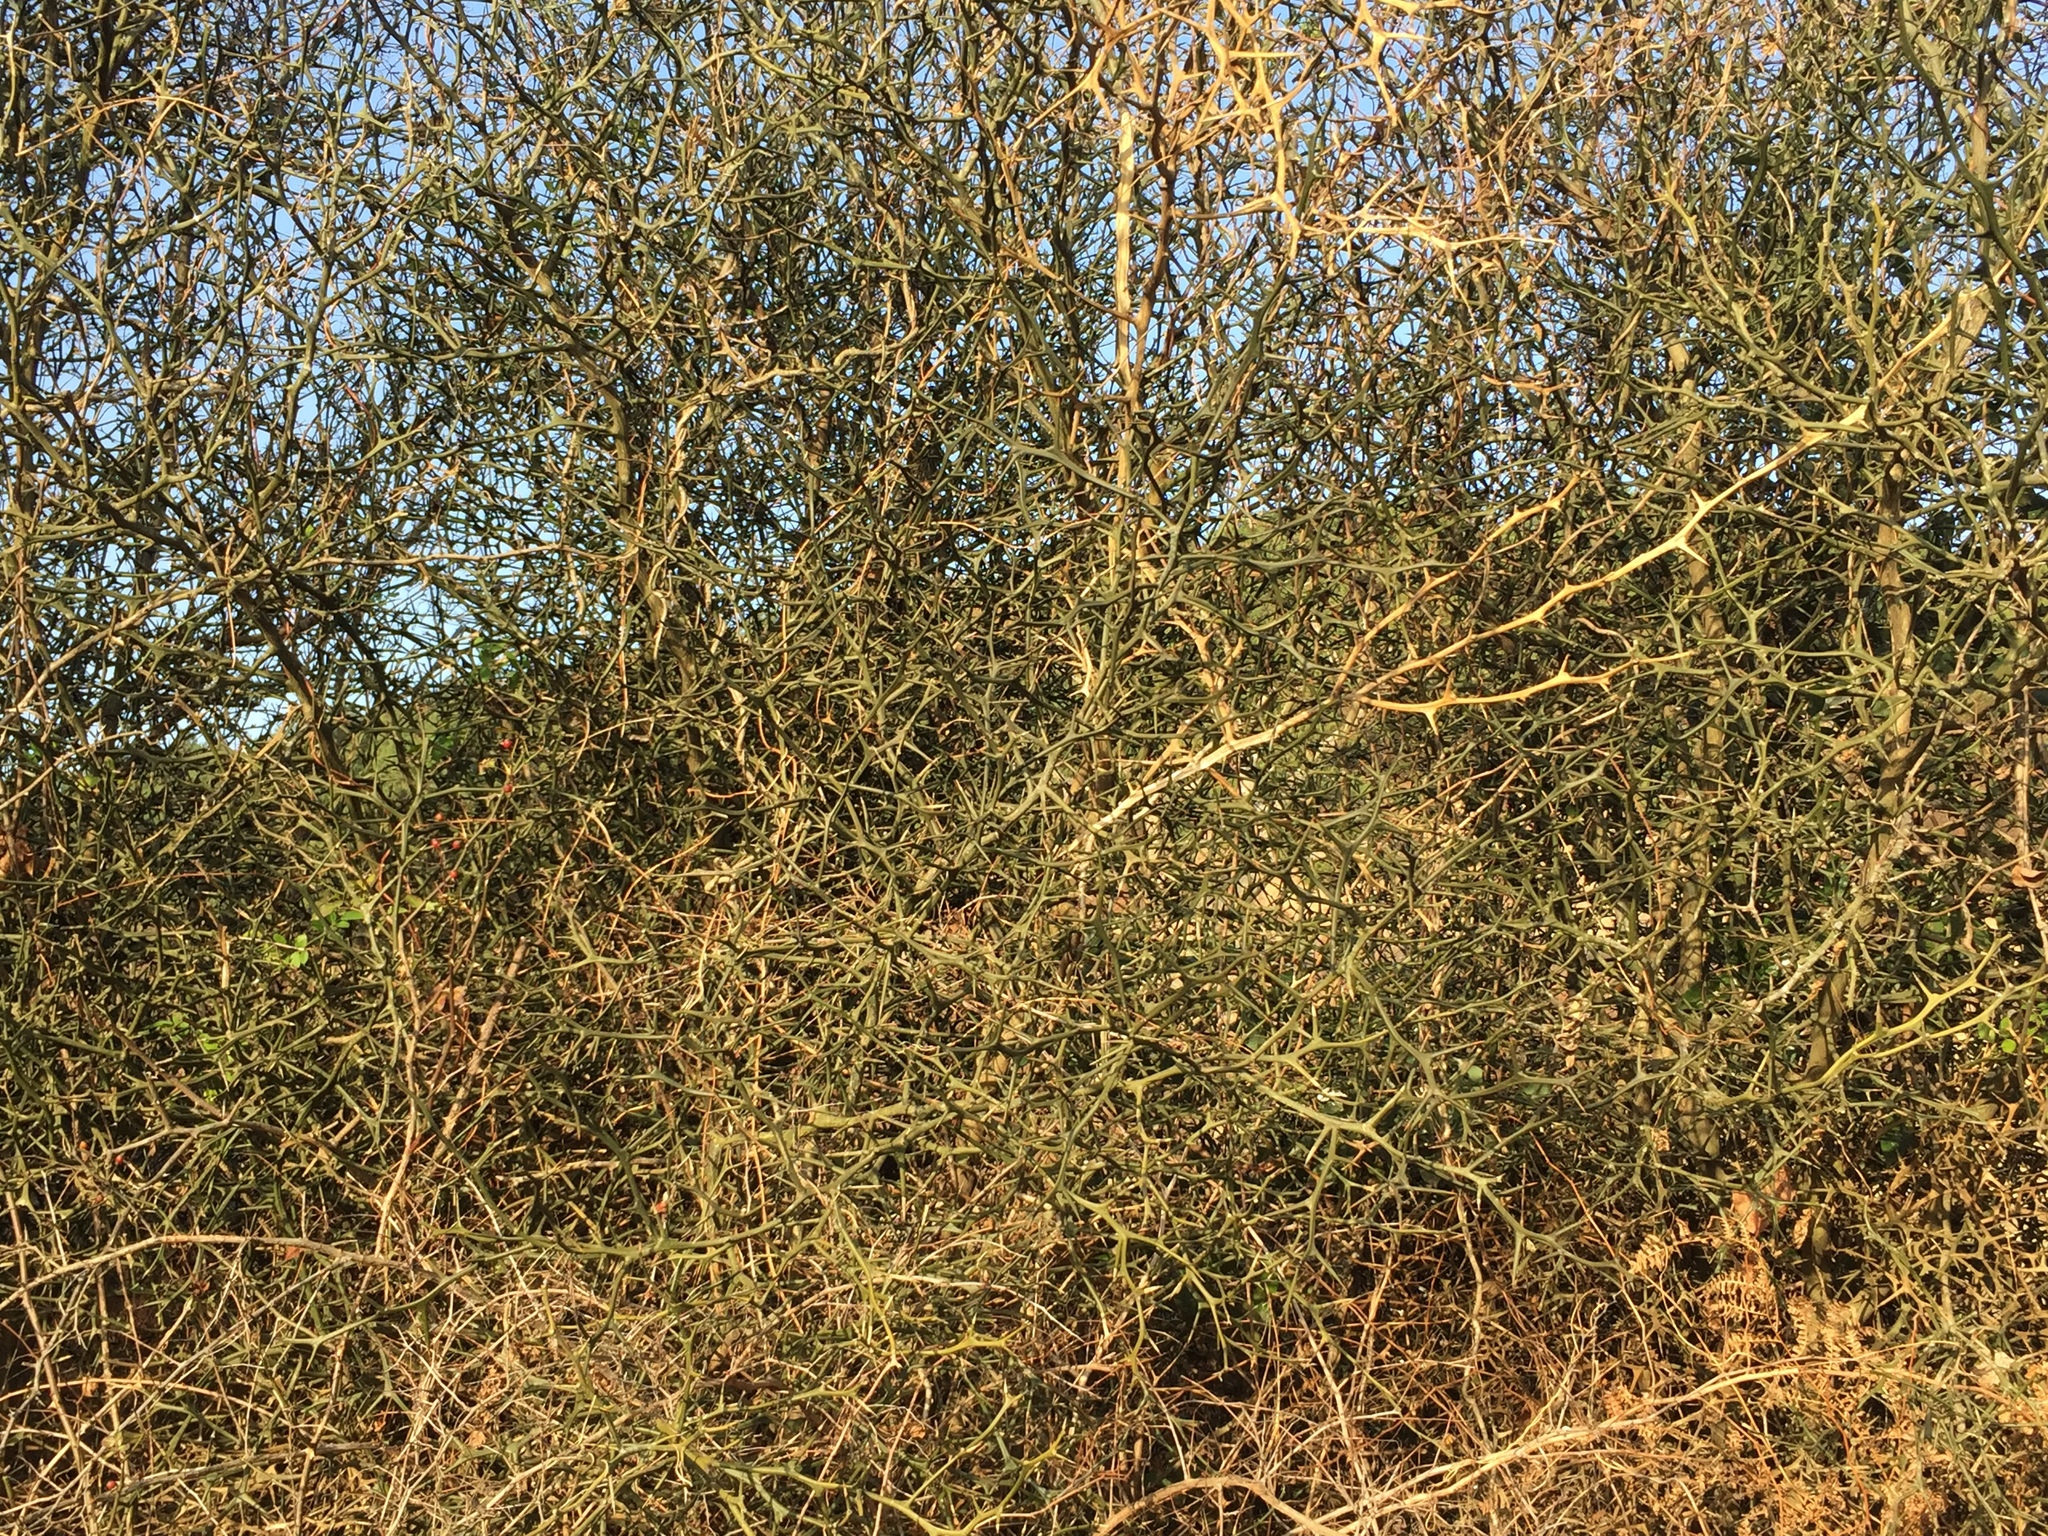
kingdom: Plantae
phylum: Tracheophyta
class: Magnoliopsida
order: Sapindales
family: Rutaceae
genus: Citrus
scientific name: Citrus trifoliata
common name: Japanese bitter-orange
